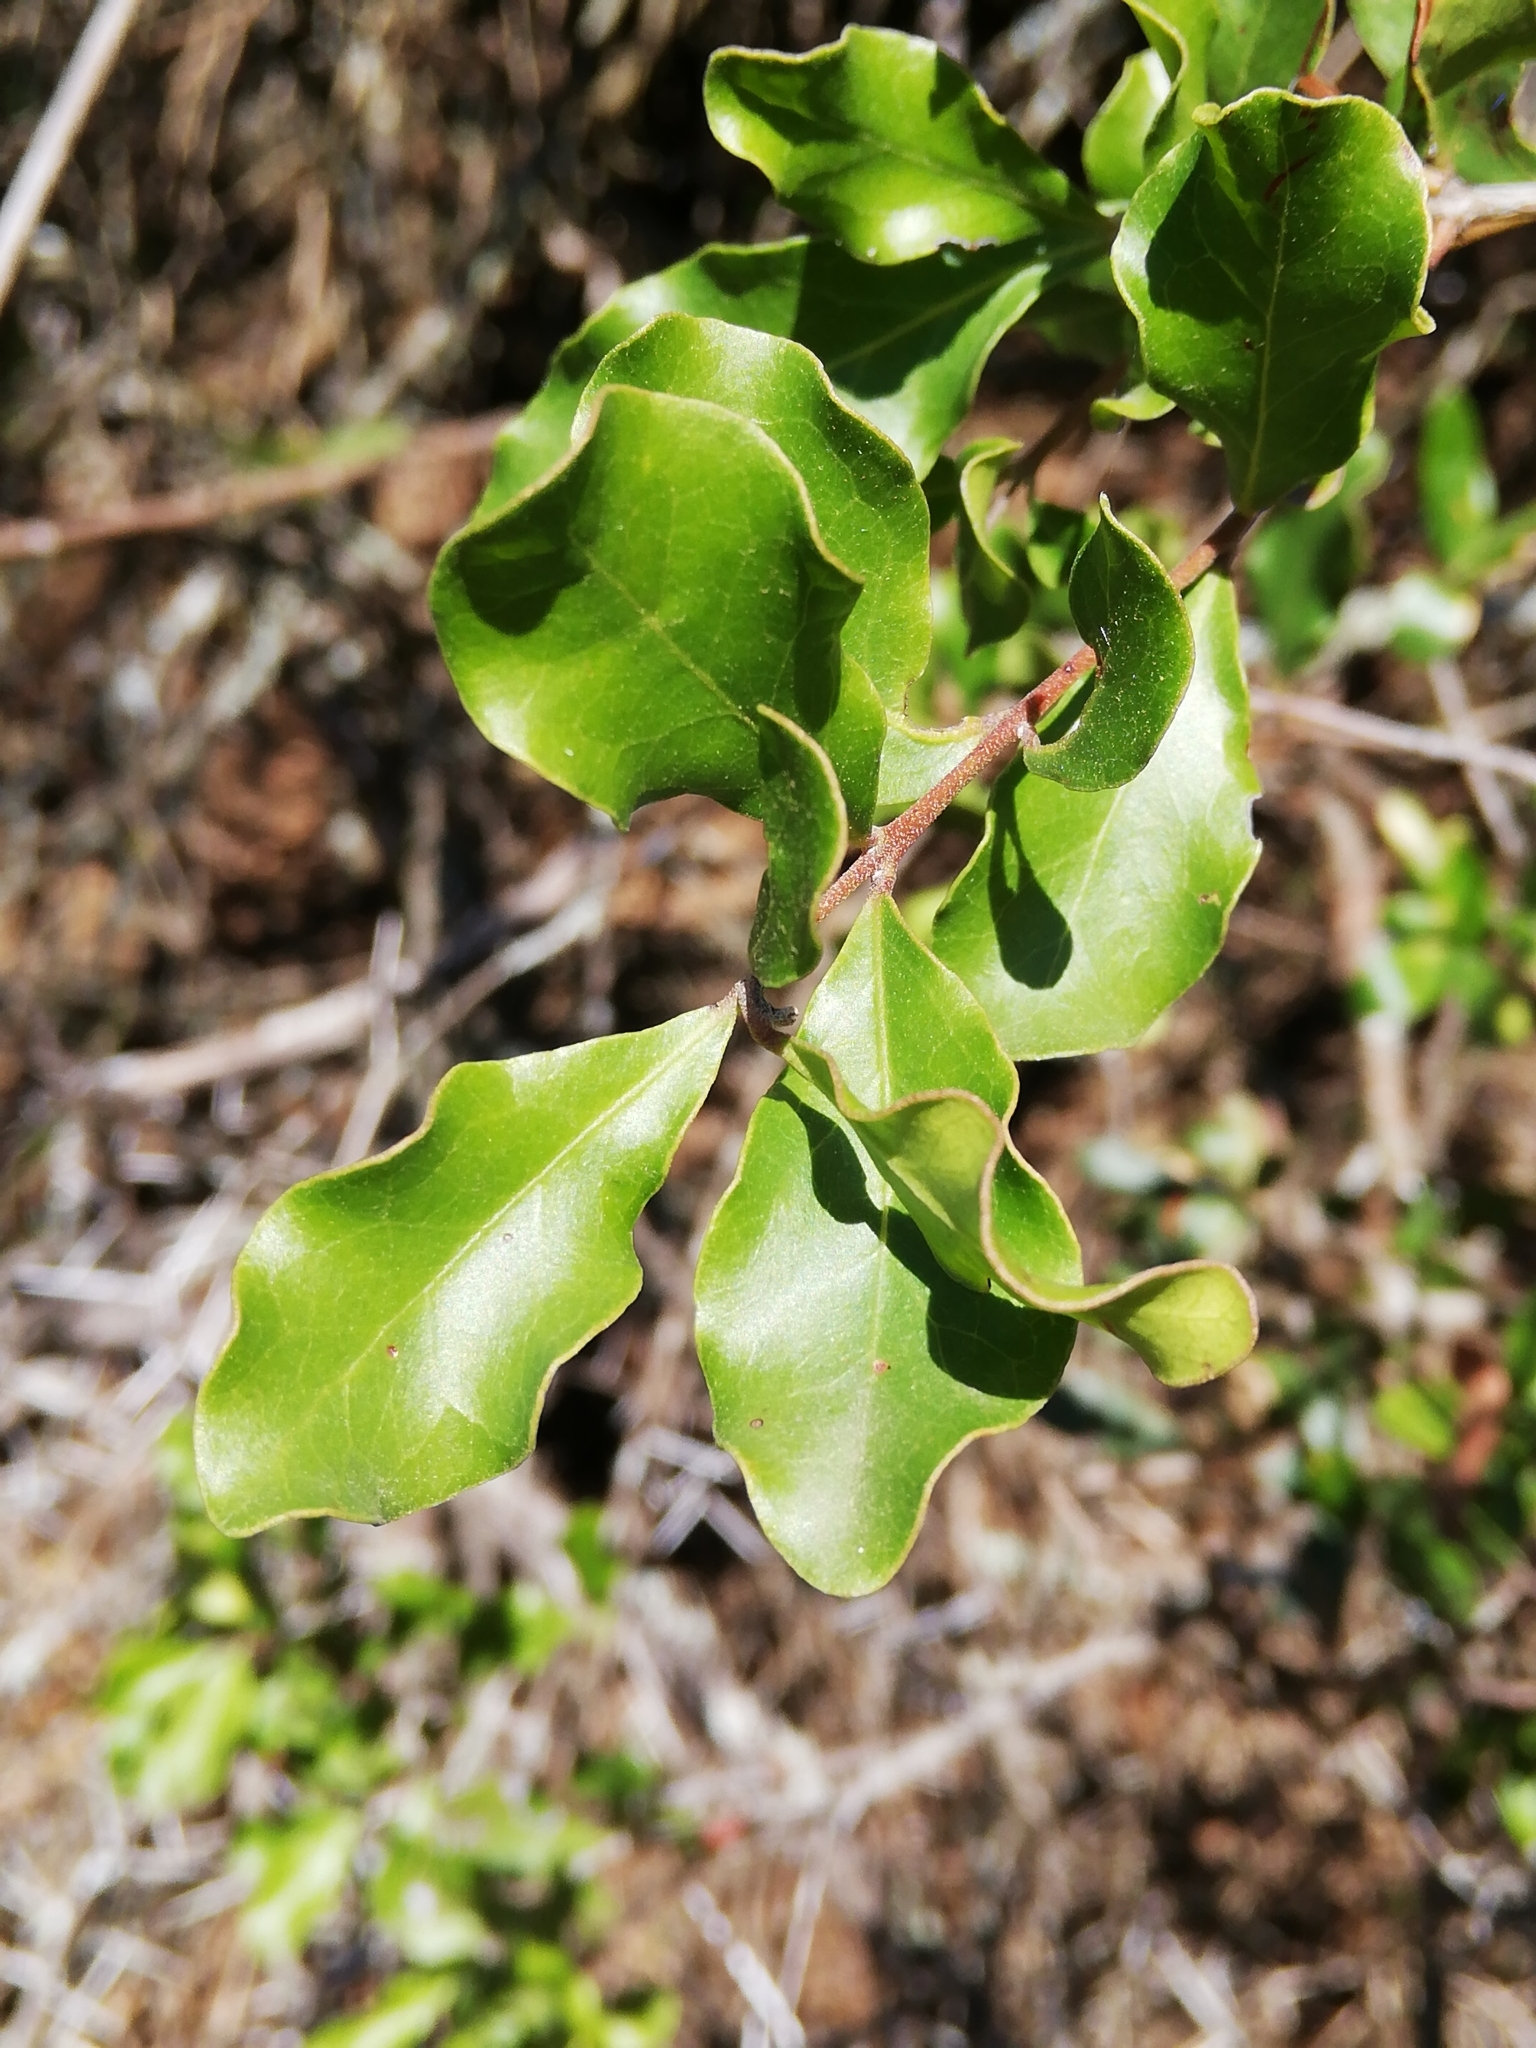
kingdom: Plantae
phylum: Tracheophyta
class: Magnoliopsida
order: Ericales
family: Ebenaceae
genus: Euclea
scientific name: Euclea undulata
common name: Small-leaved guarri
